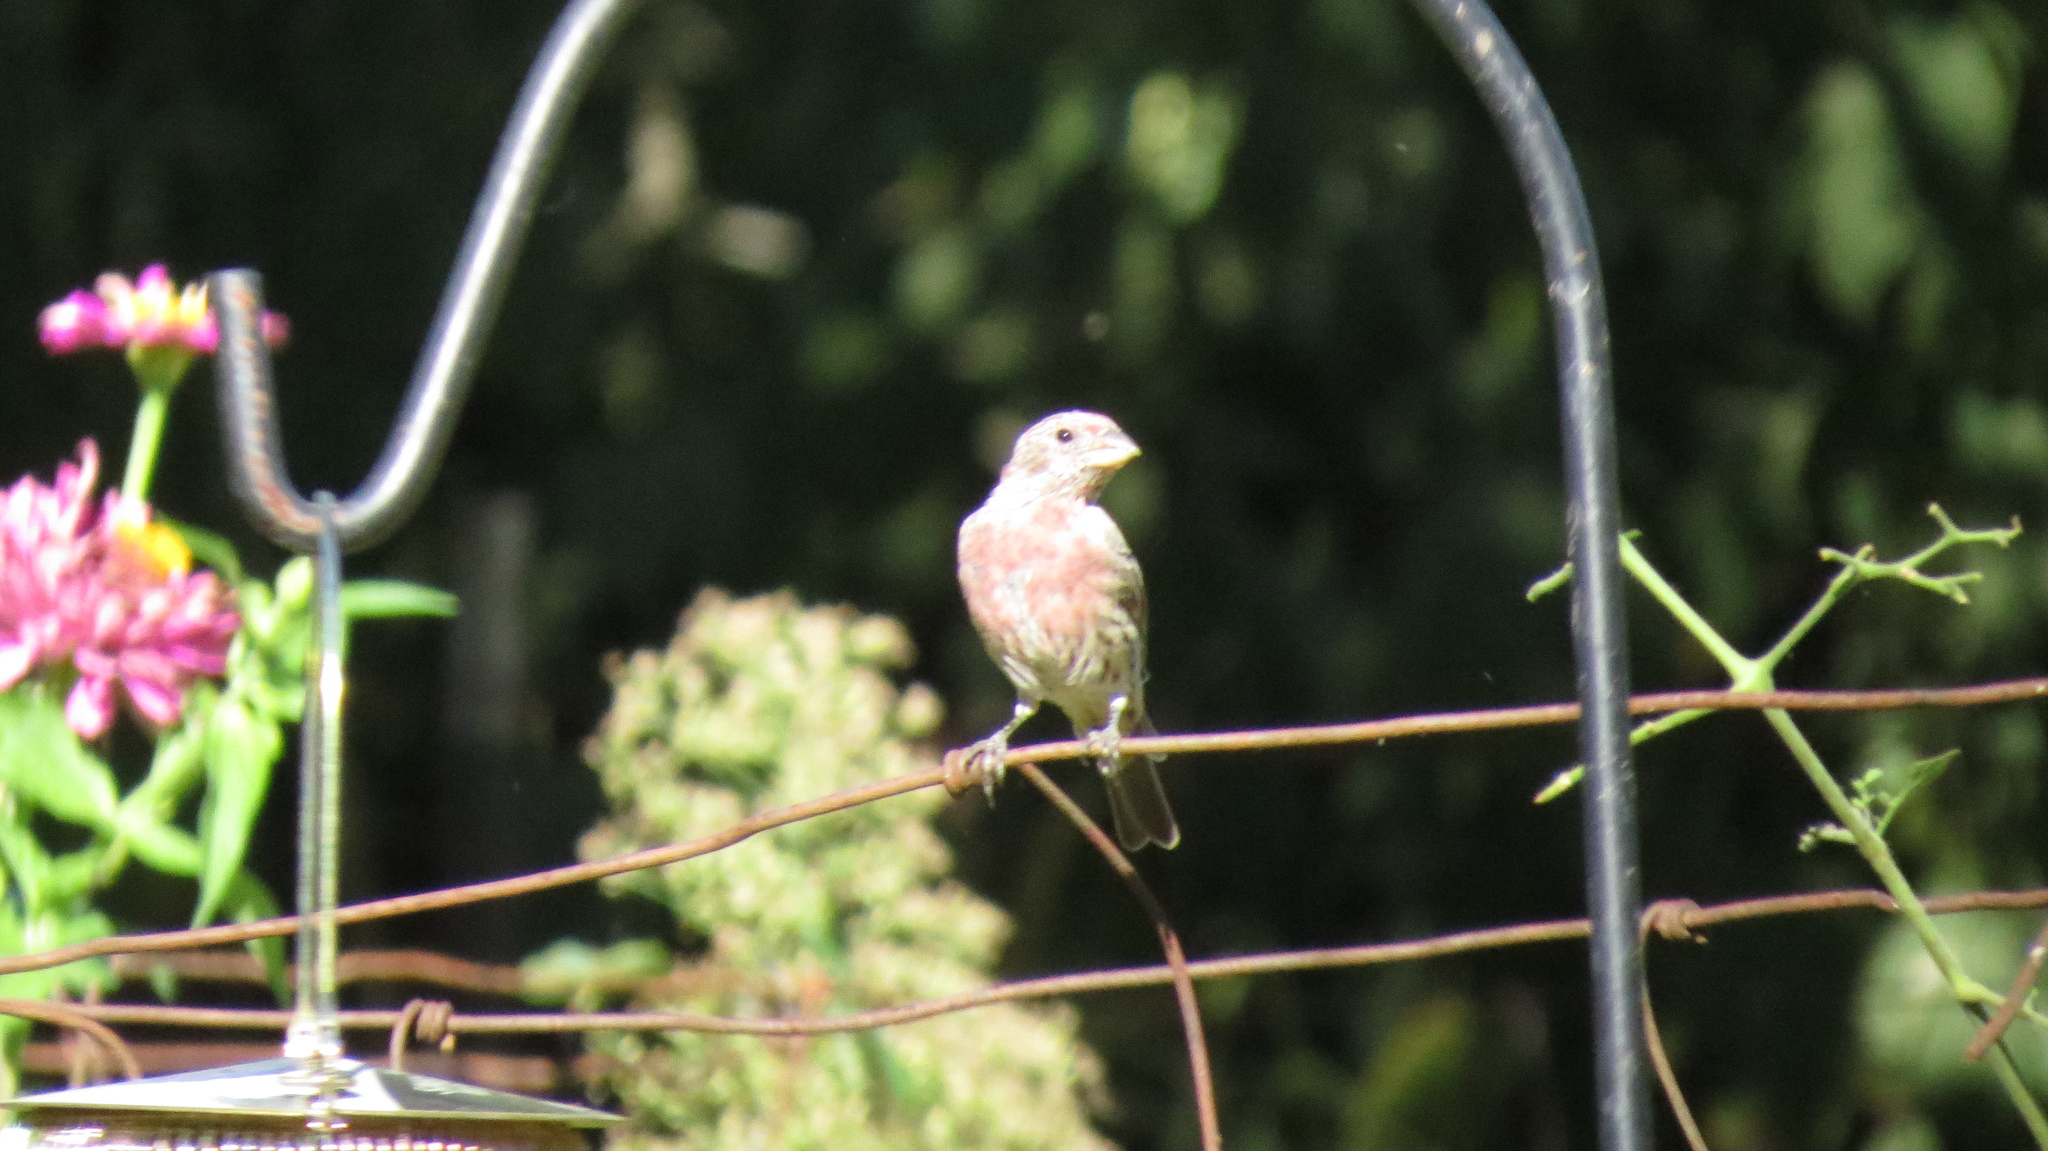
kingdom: Animalia
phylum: Chordata
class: Aves
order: Passeriformes
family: Fringillidae
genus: Haemorhous
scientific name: Haemorhous mexicanus
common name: House finch
